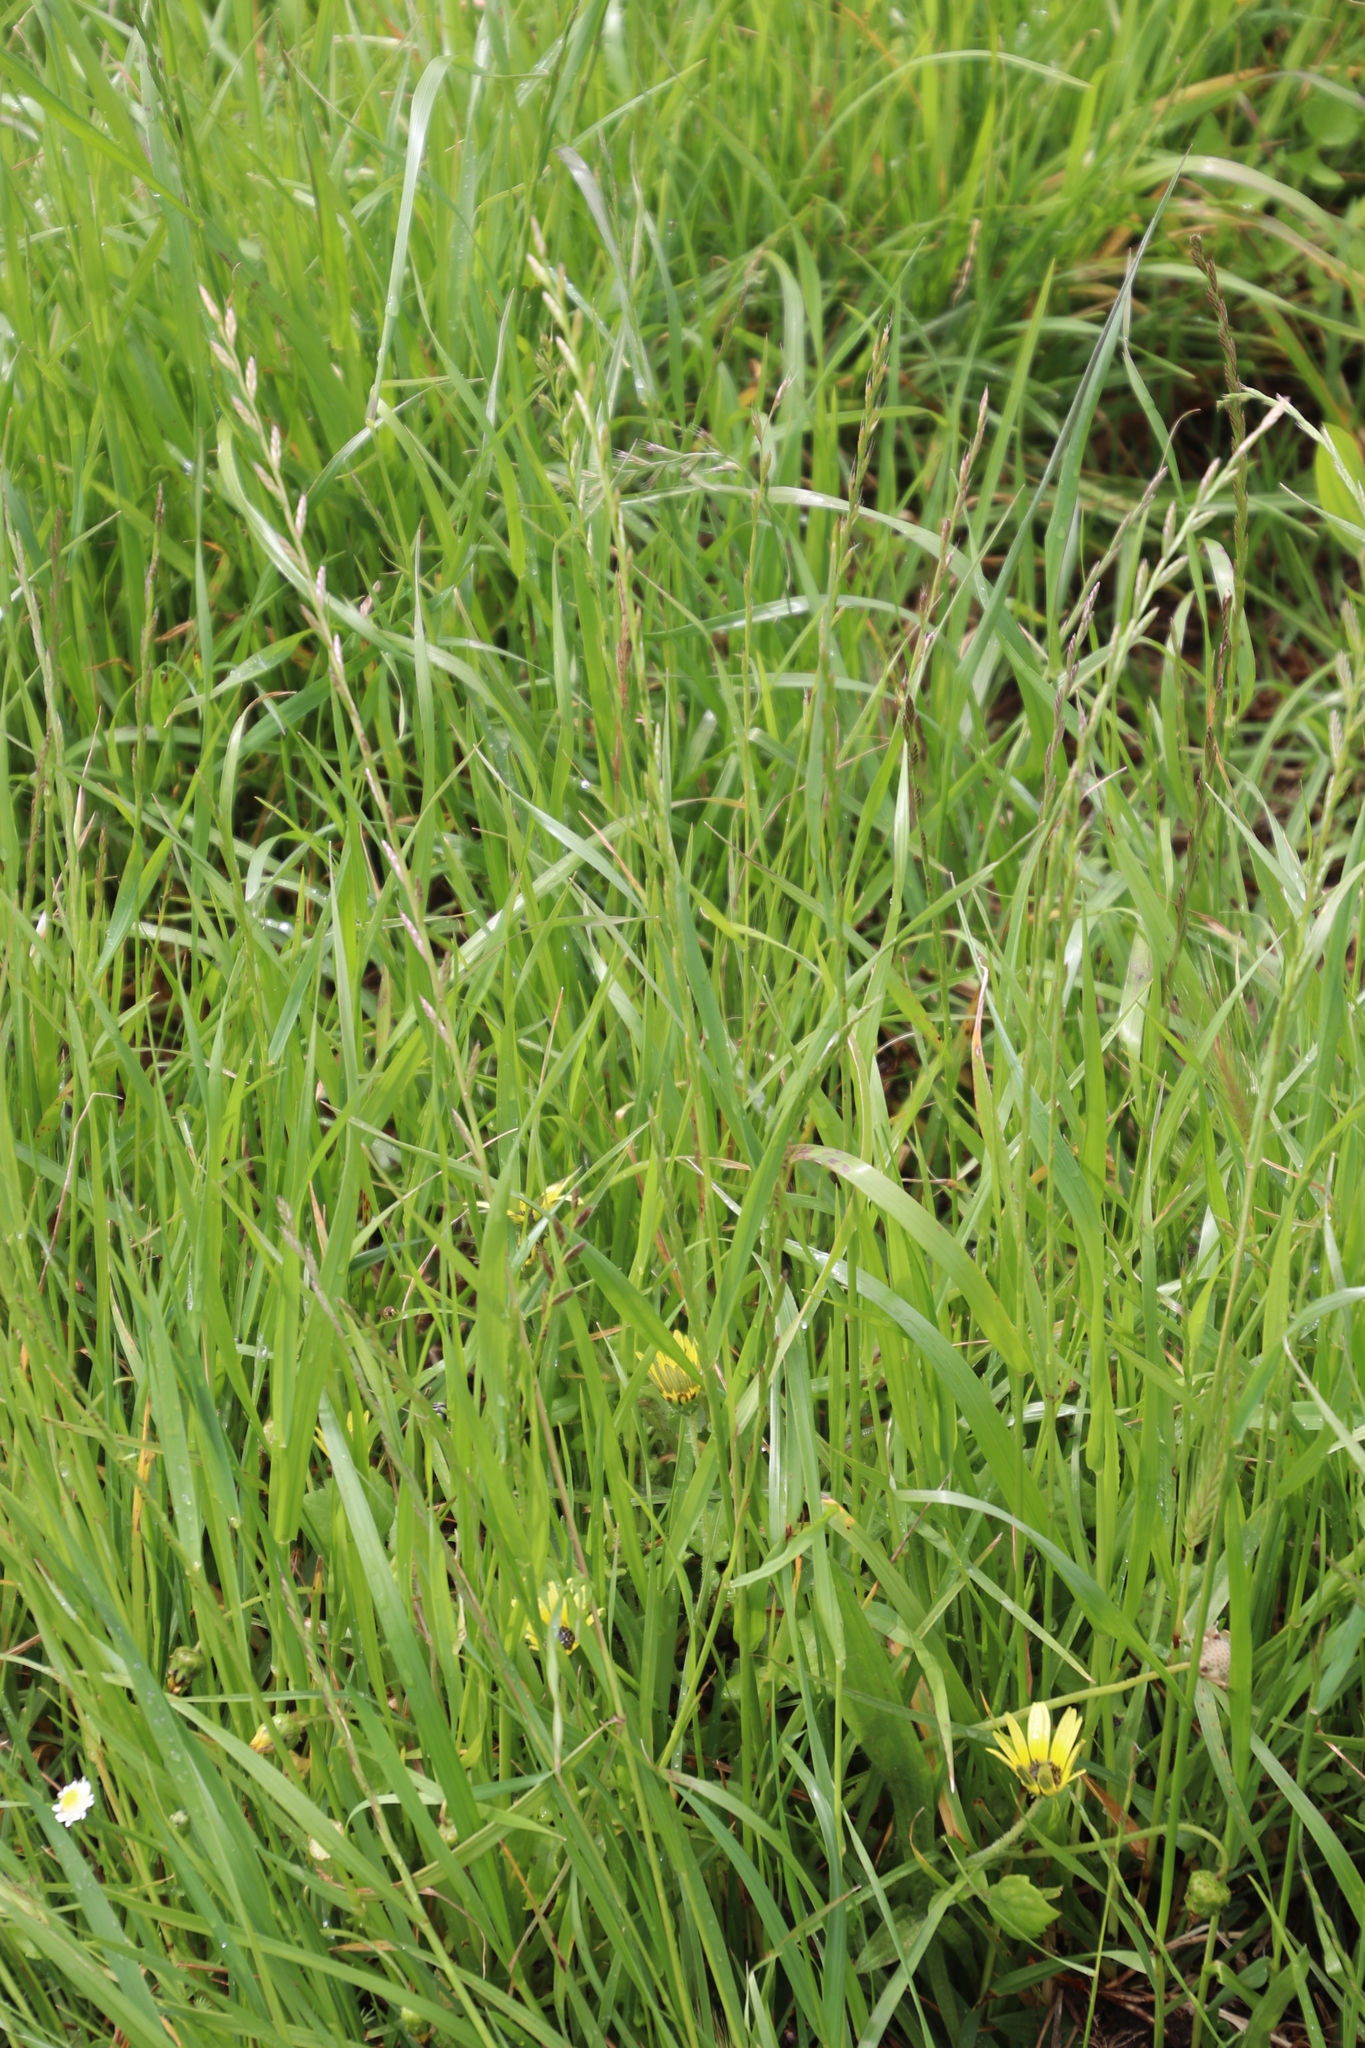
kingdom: Plantae
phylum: Tracheophyta
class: Liliopsida
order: Poales
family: Poaceae
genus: Lolium
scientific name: Lolium perenne
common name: Perennial ryegrass
